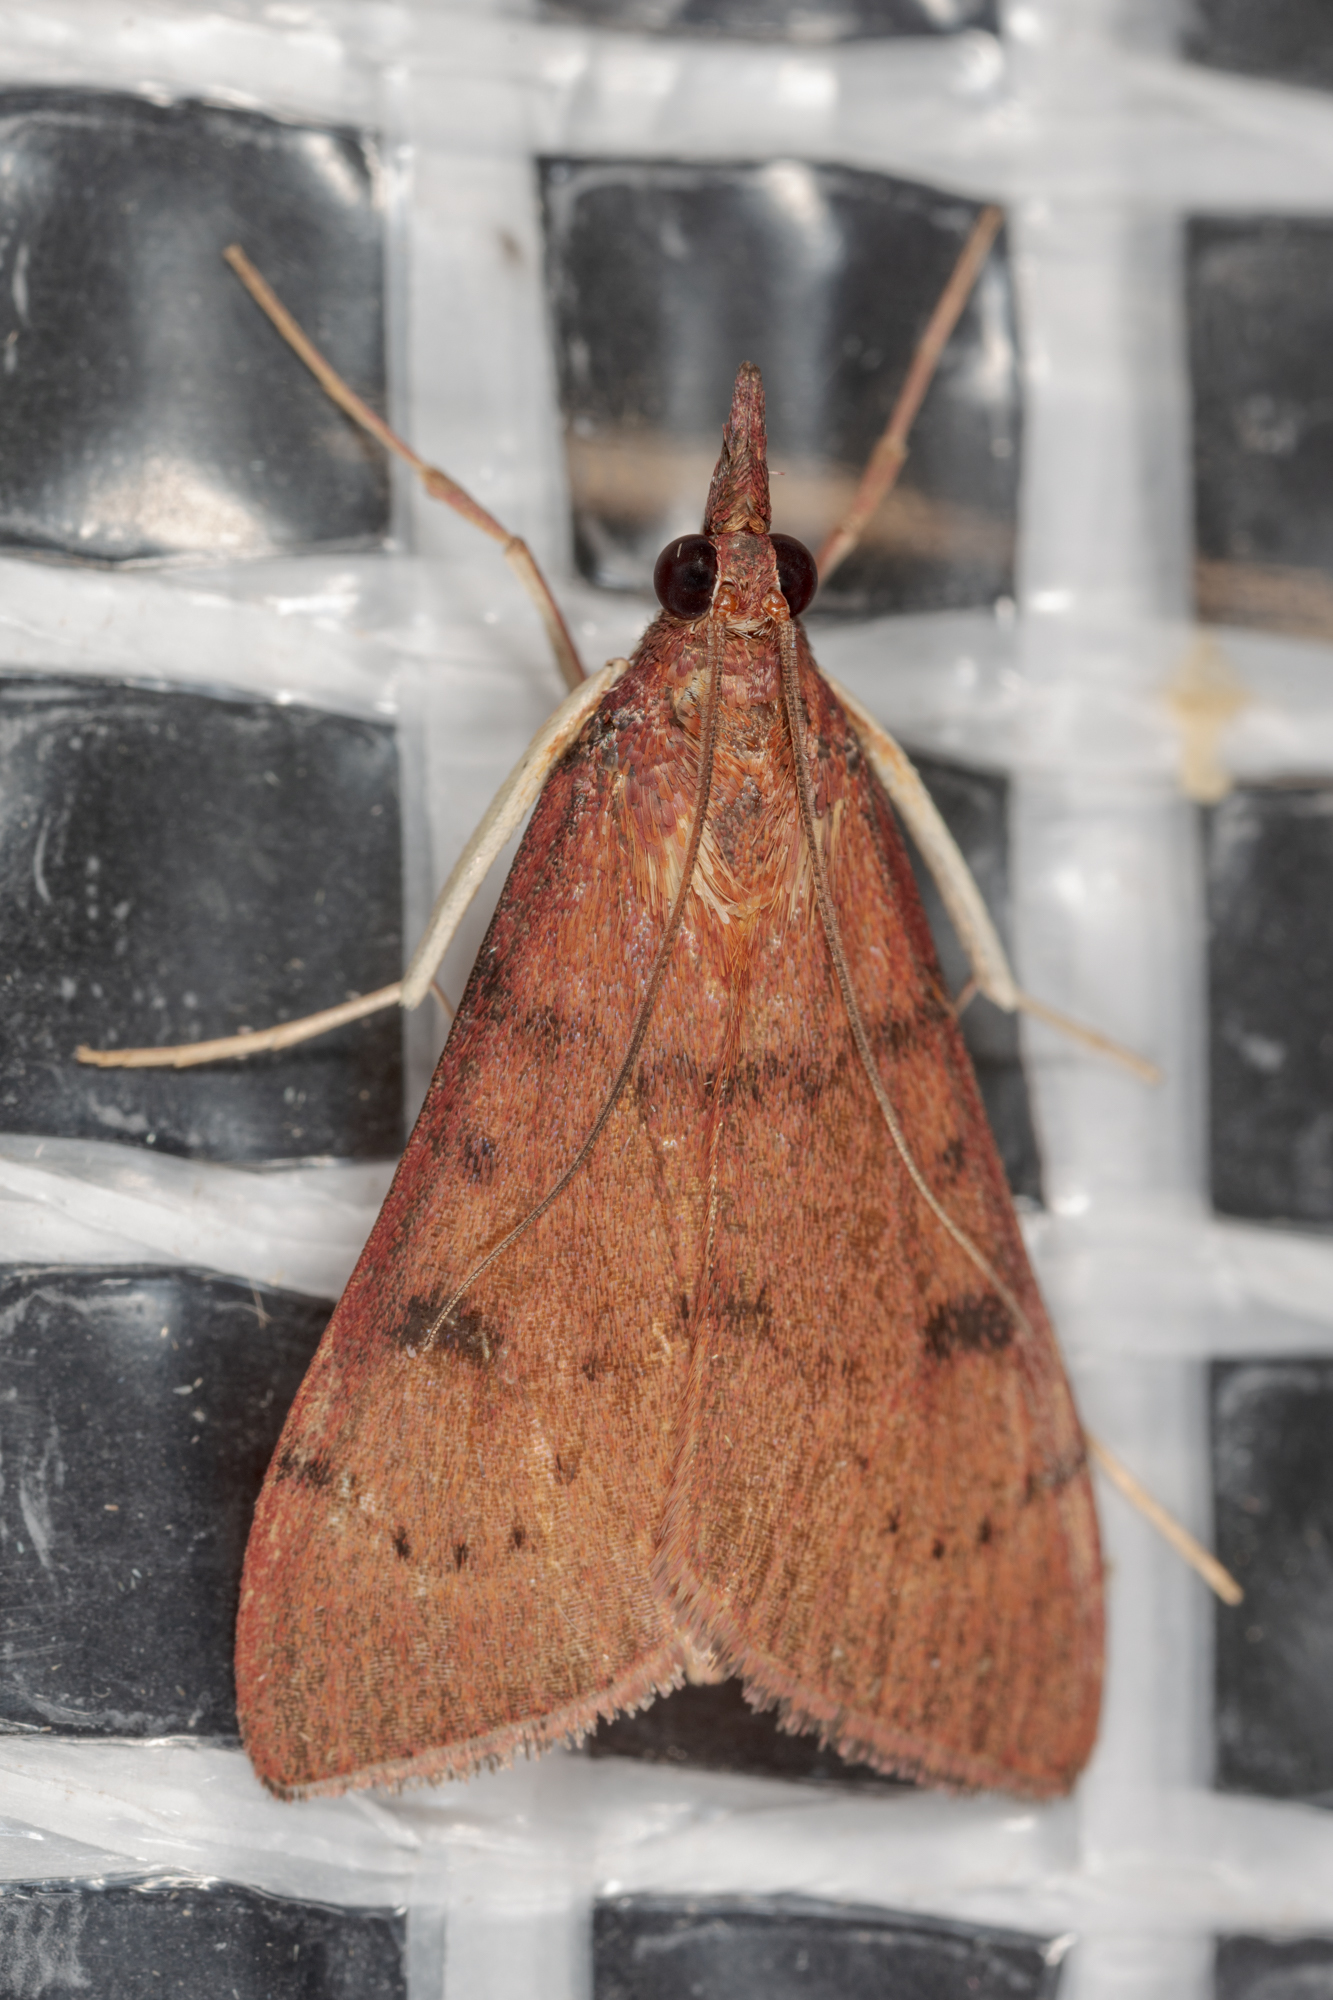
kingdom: Animalia
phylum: Arthropoda
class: Insecta
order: Lepidoptera
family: Crambidae
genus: Uresiphita
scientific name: Uresiphita reversalis
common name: Genista broom moth
